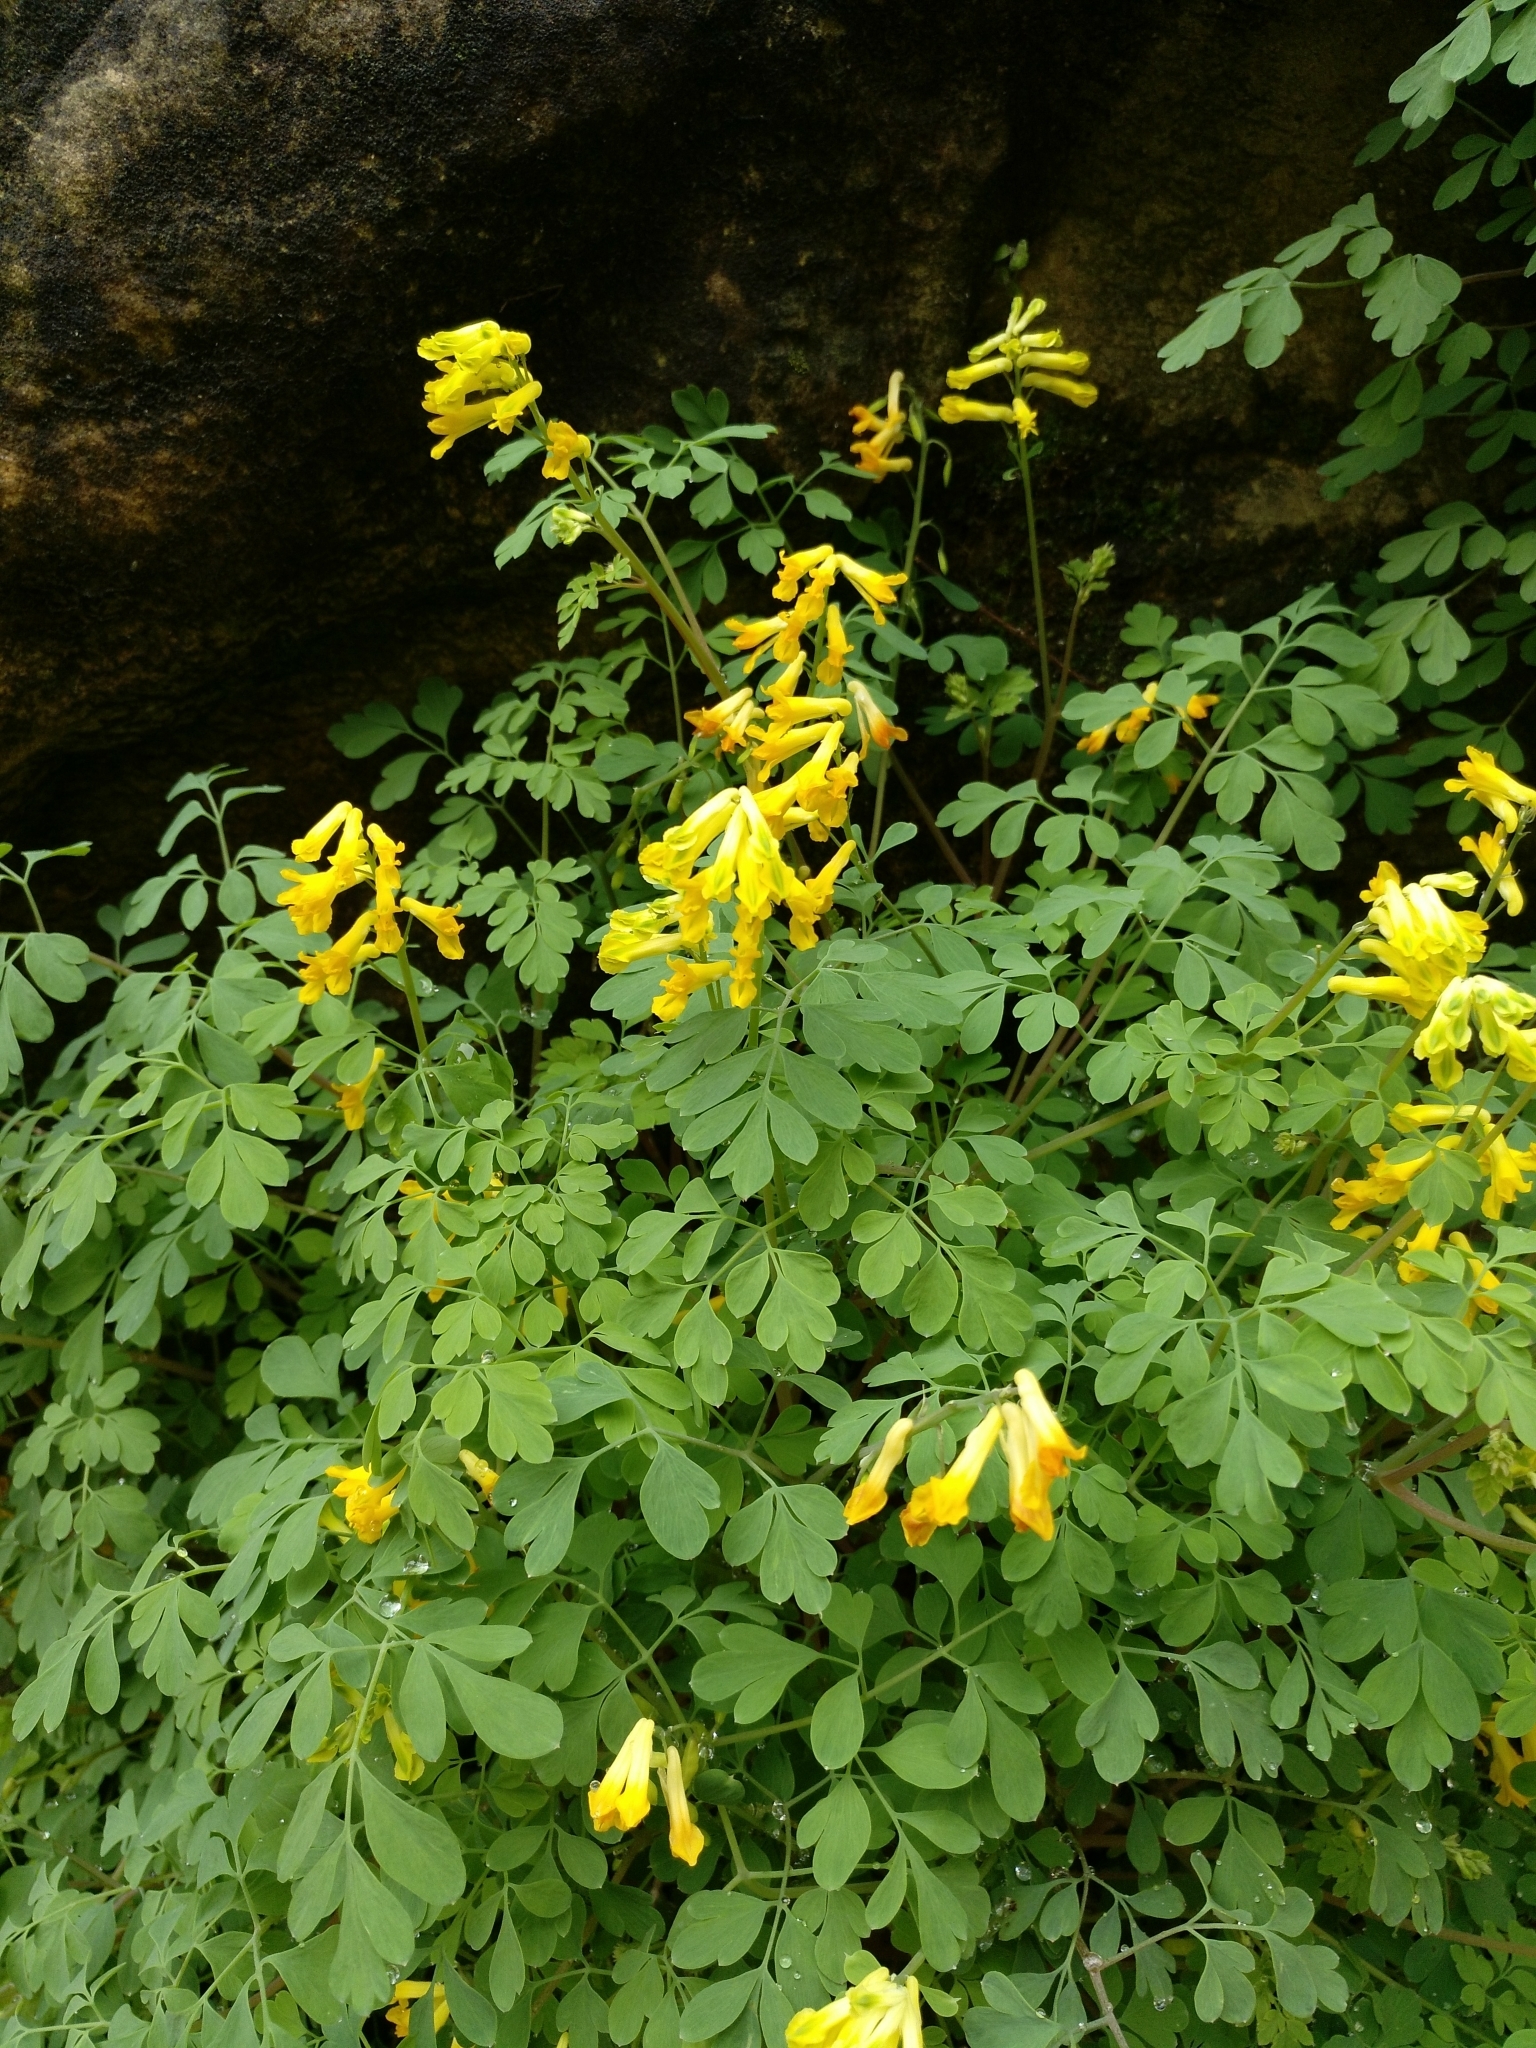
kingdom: Plantae
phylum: Tracheophyta
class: Magnoliopsida
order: Ranunculales
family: Papaveraceae
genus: Pseudofumaria
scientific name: Pseudofumaria lutea
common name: Yellow corydalis
